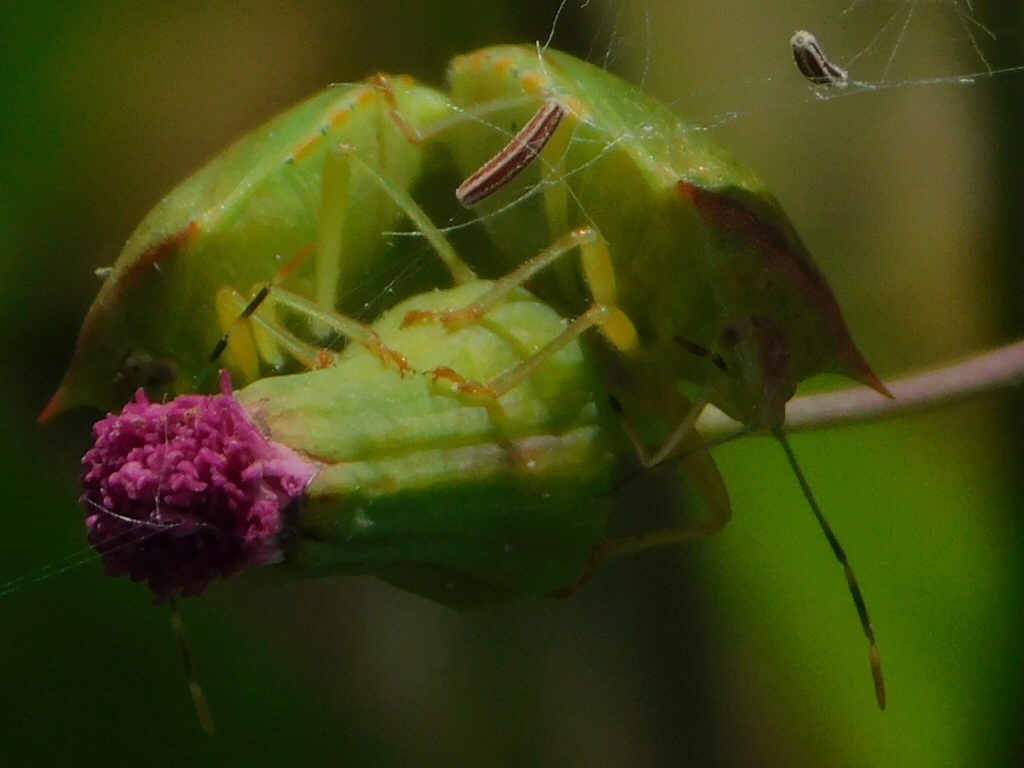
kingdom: Animalia
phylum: Arthropoda
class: Insecta
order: Hemiptera
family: Pentatomidae
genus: Thyanta
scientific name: Thyanta perditor
